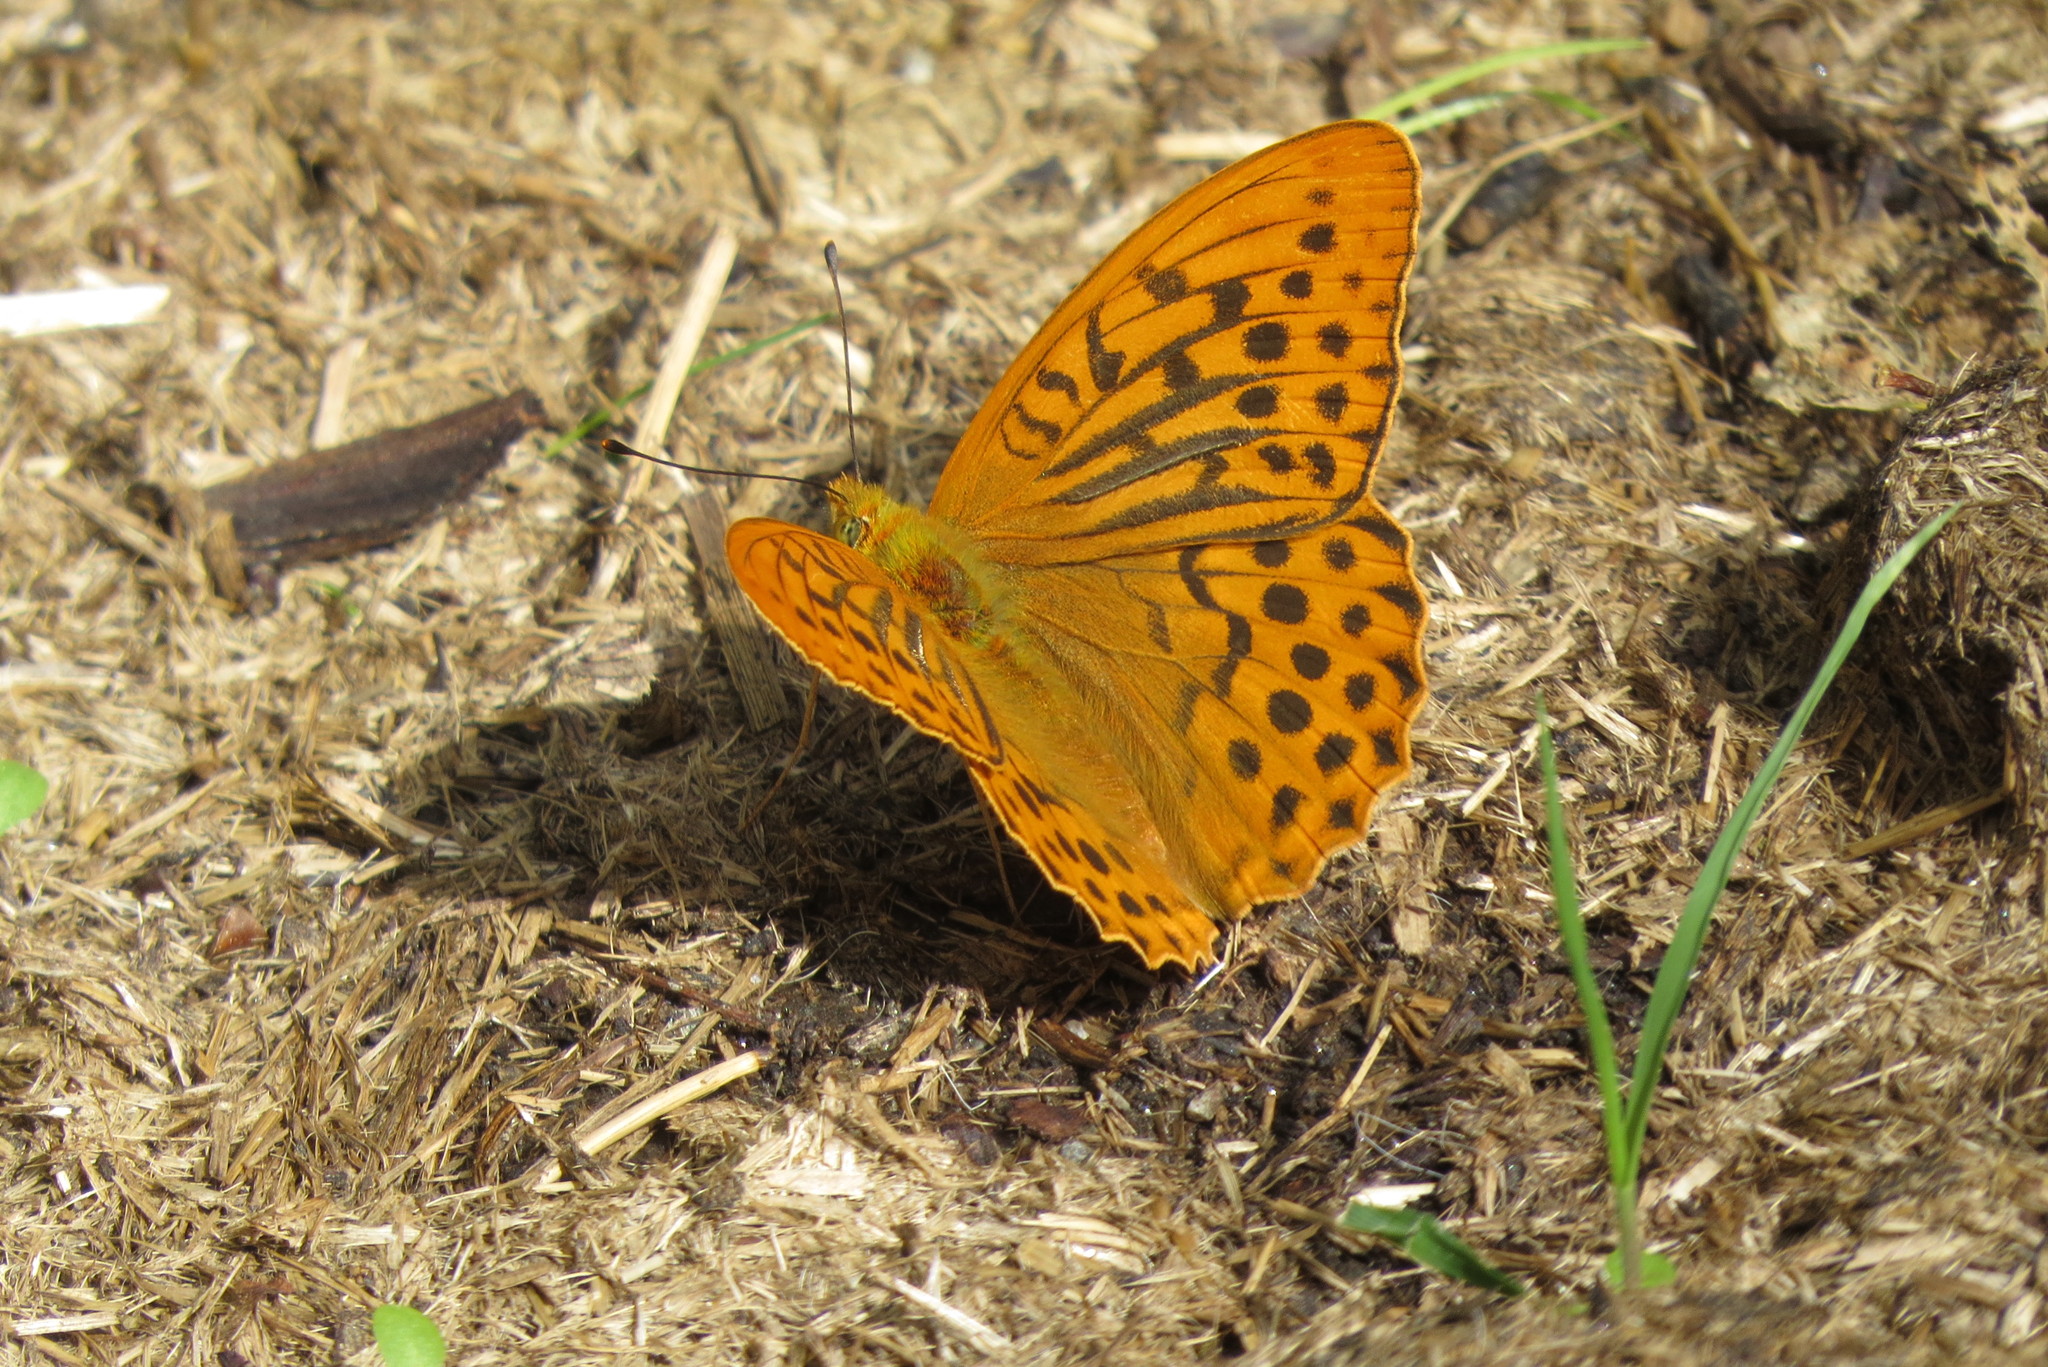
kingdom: Animalia
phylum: Arthropoda
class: Insecta
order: Lepidoptera
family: Nymphalidae
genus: Argynnis
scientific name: Argynnis paphia
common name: Silver-washed fritillary
